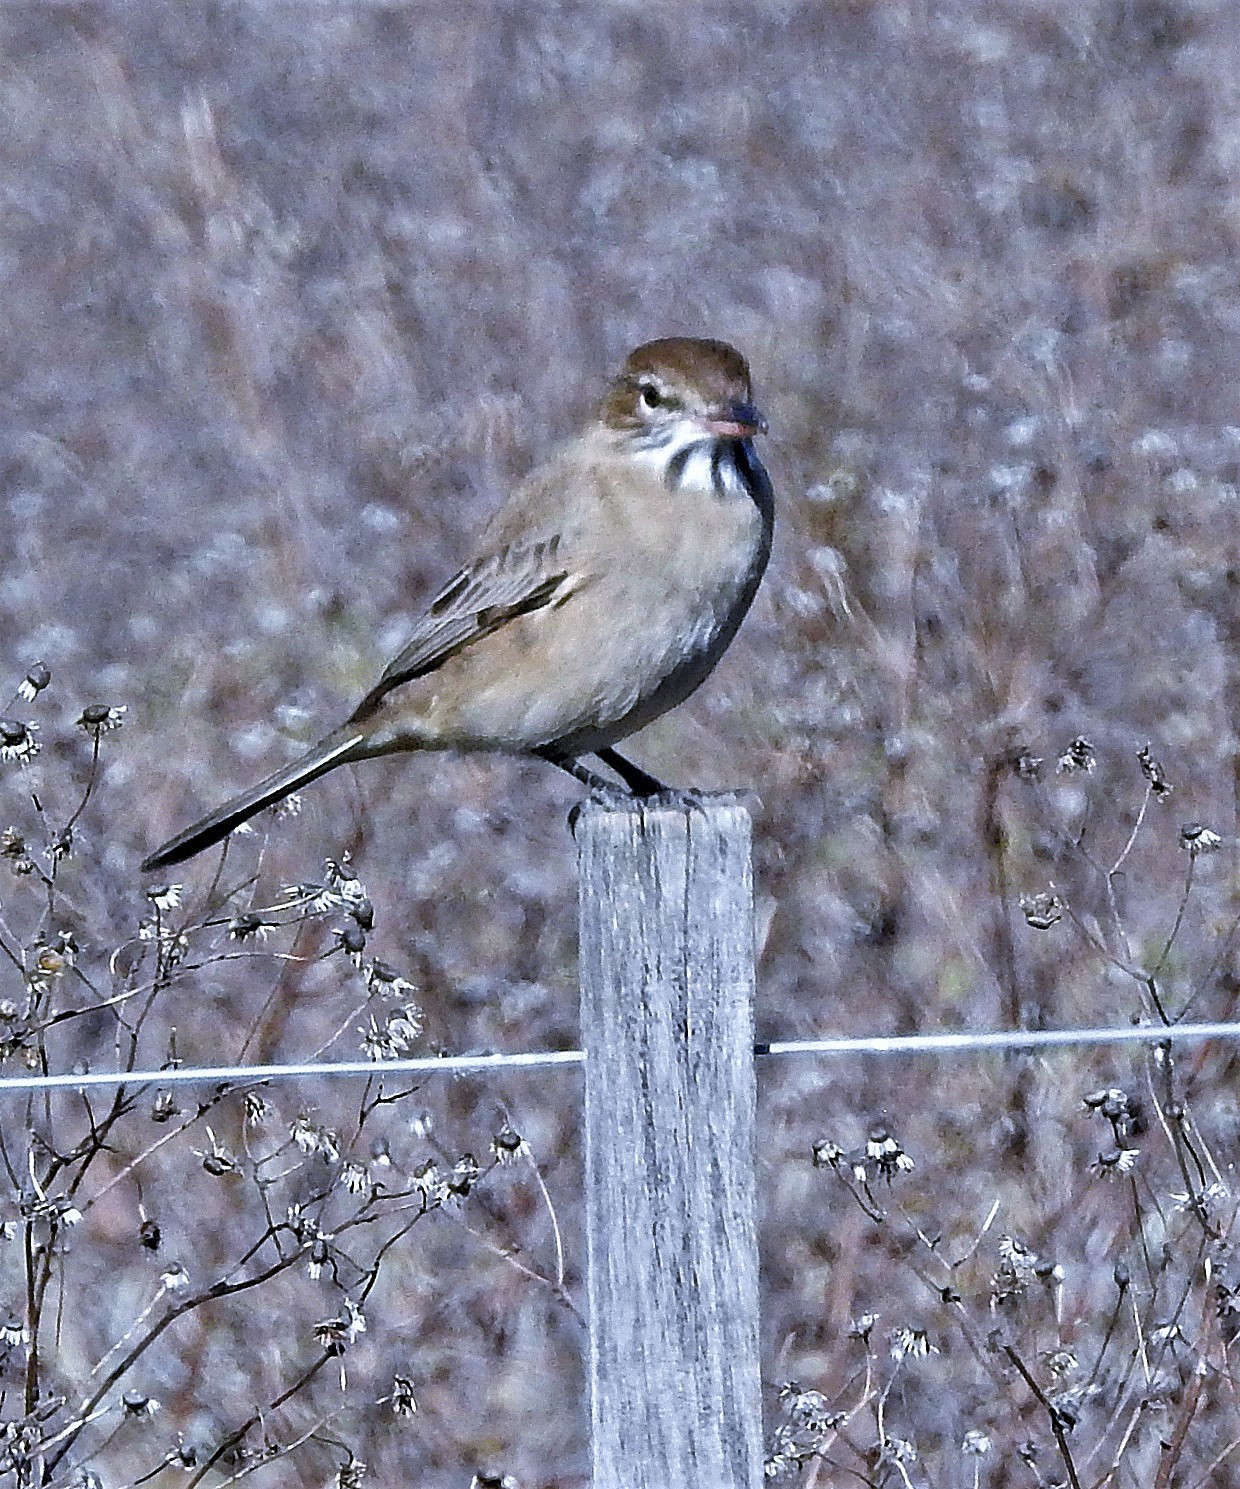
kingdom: Animalia
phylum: Chordata
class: Aves
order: Passeriformes
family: Tyrannidae
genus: Agriornis
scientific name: Agriornis micropterus
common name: Grey-bellied shrike-tyrant
